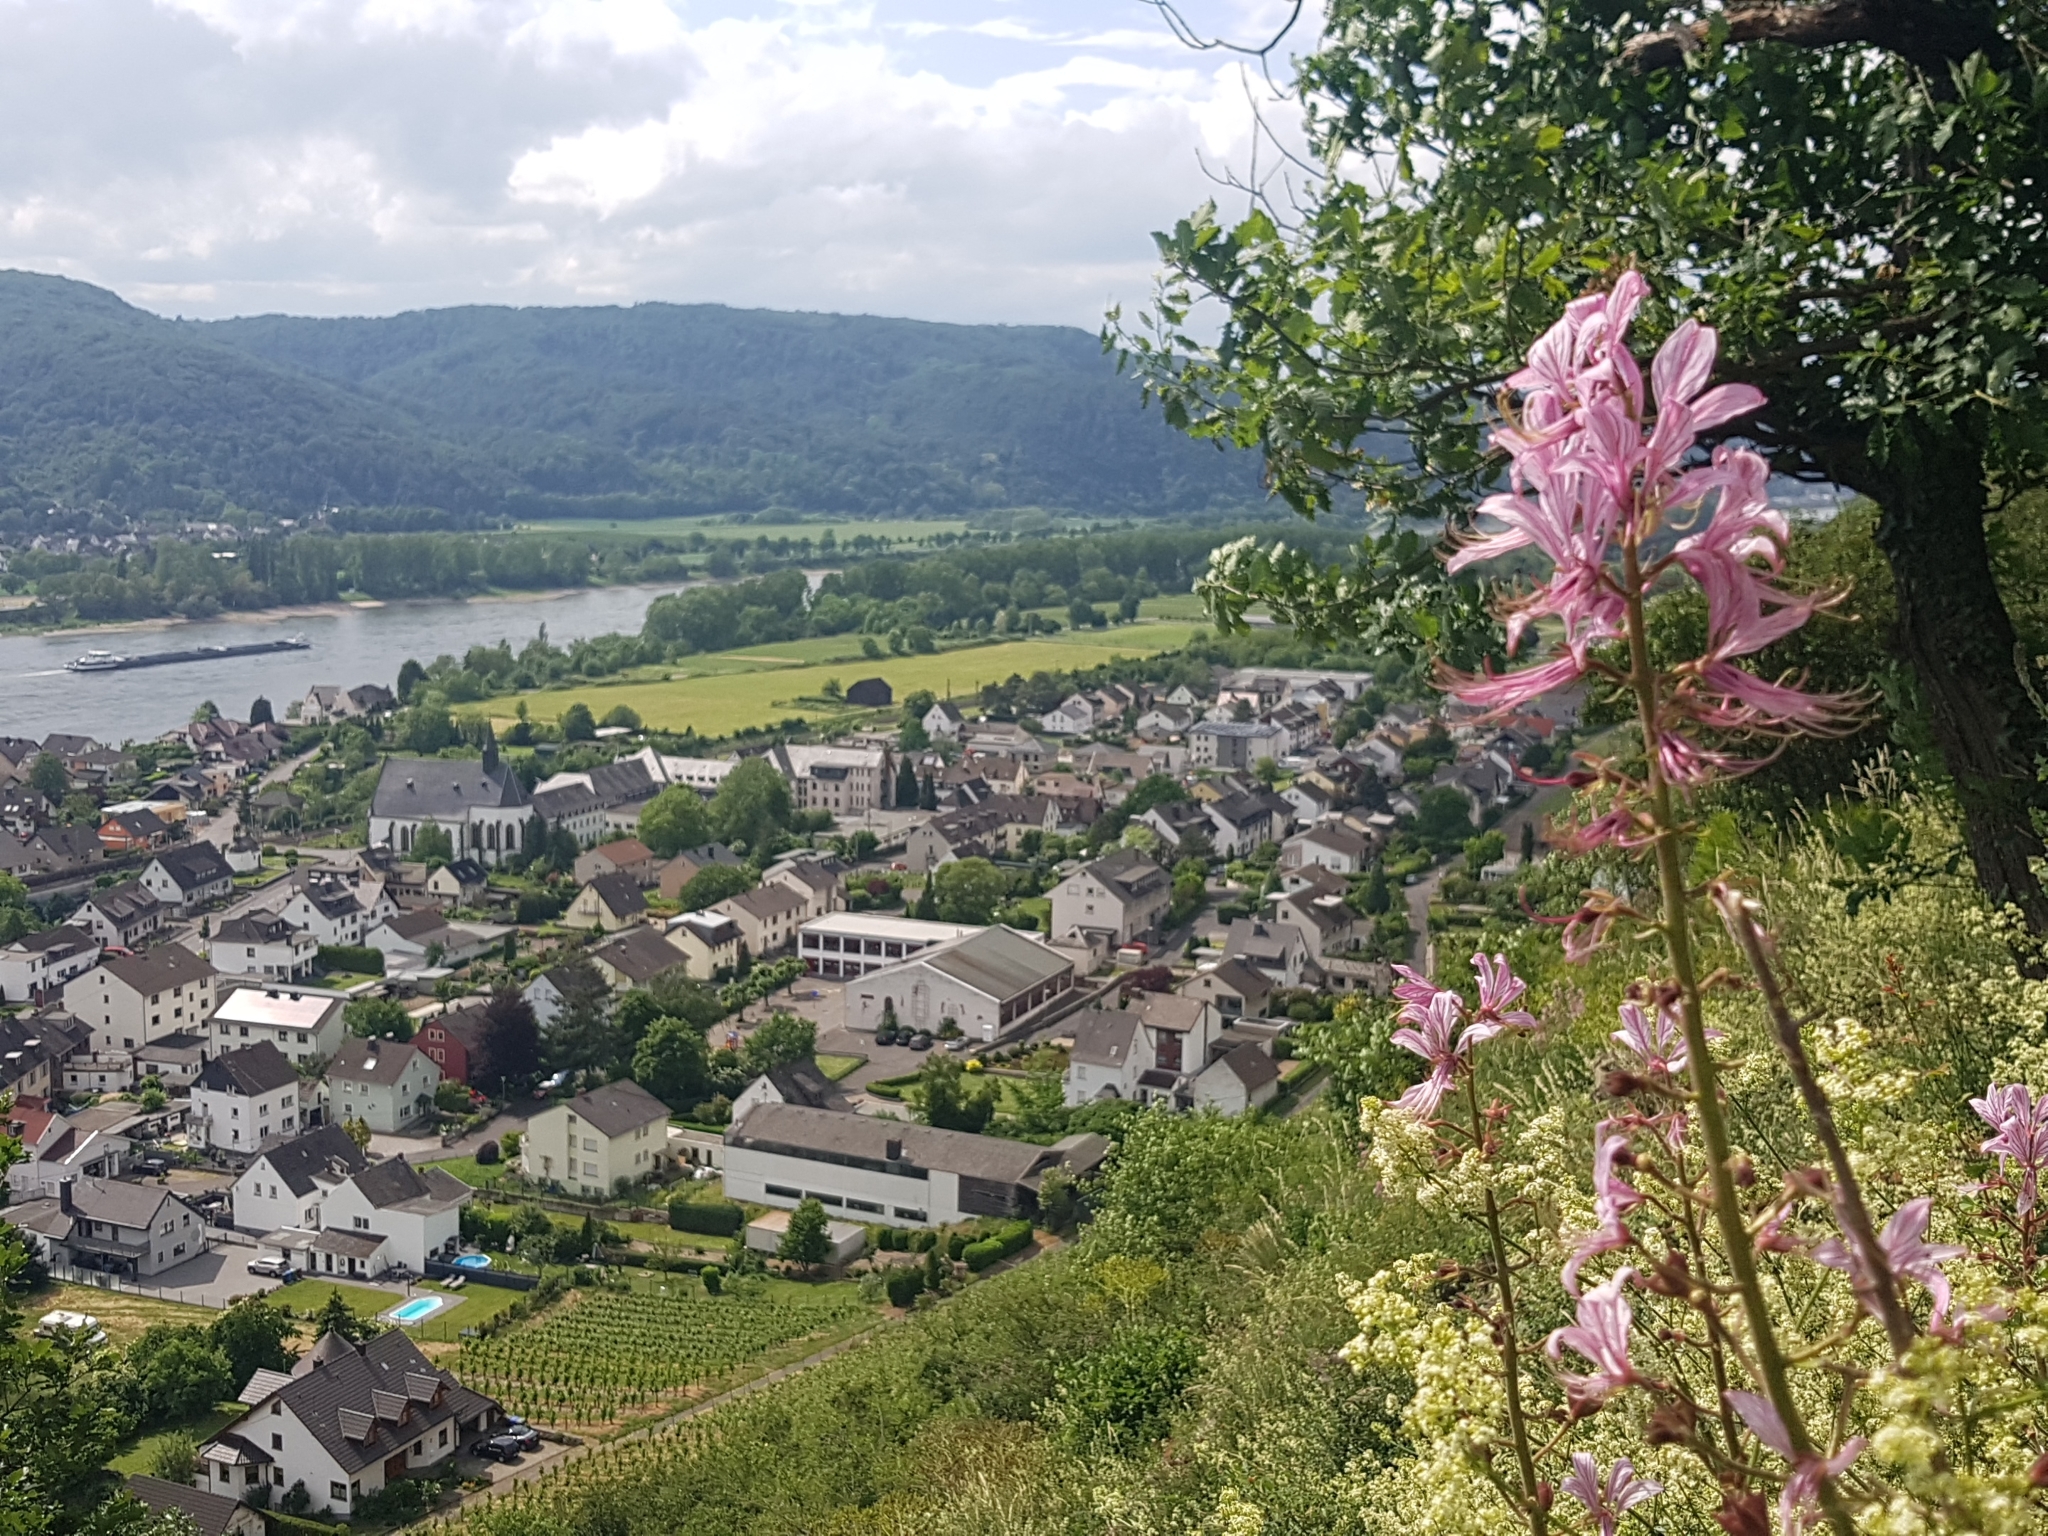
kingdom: Plantae
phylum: Tracheophyta
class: Magnoliopsida
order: Sapindales
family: Rutaceae
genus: Dictamnus
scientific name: Dictamnus albus
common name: Gasplant
